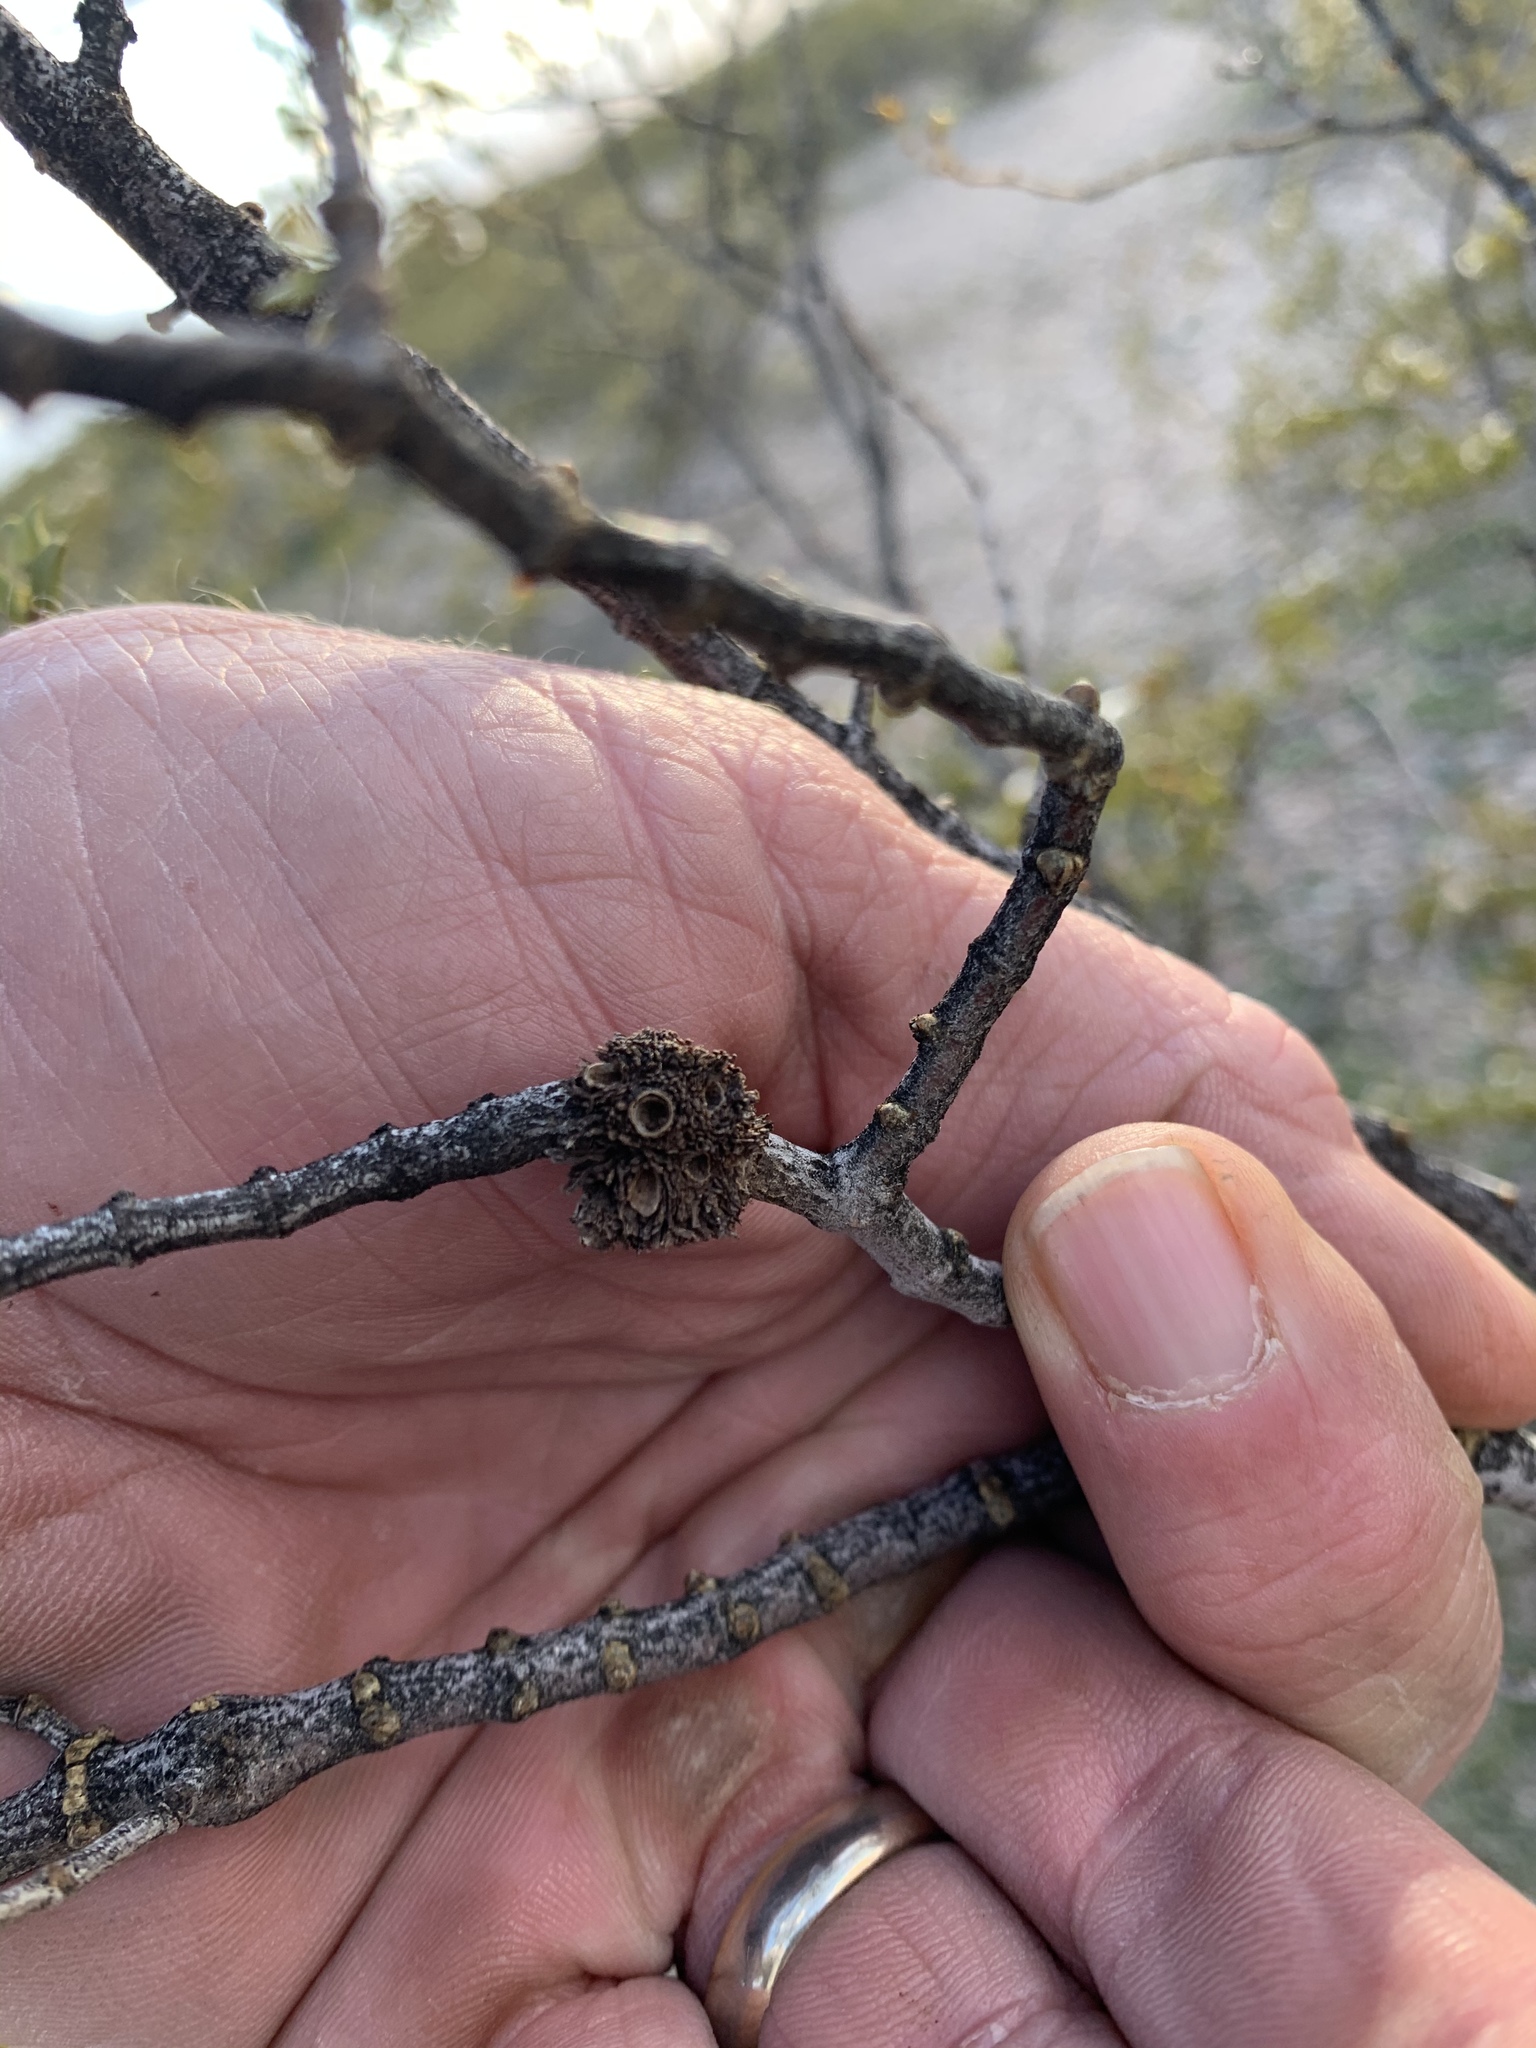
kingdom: Animalia
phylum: Arthropoda
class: Insecta
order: Diptera
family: Cecidomyiidae
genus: Asphondylia
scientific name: Asphondylia auripila
